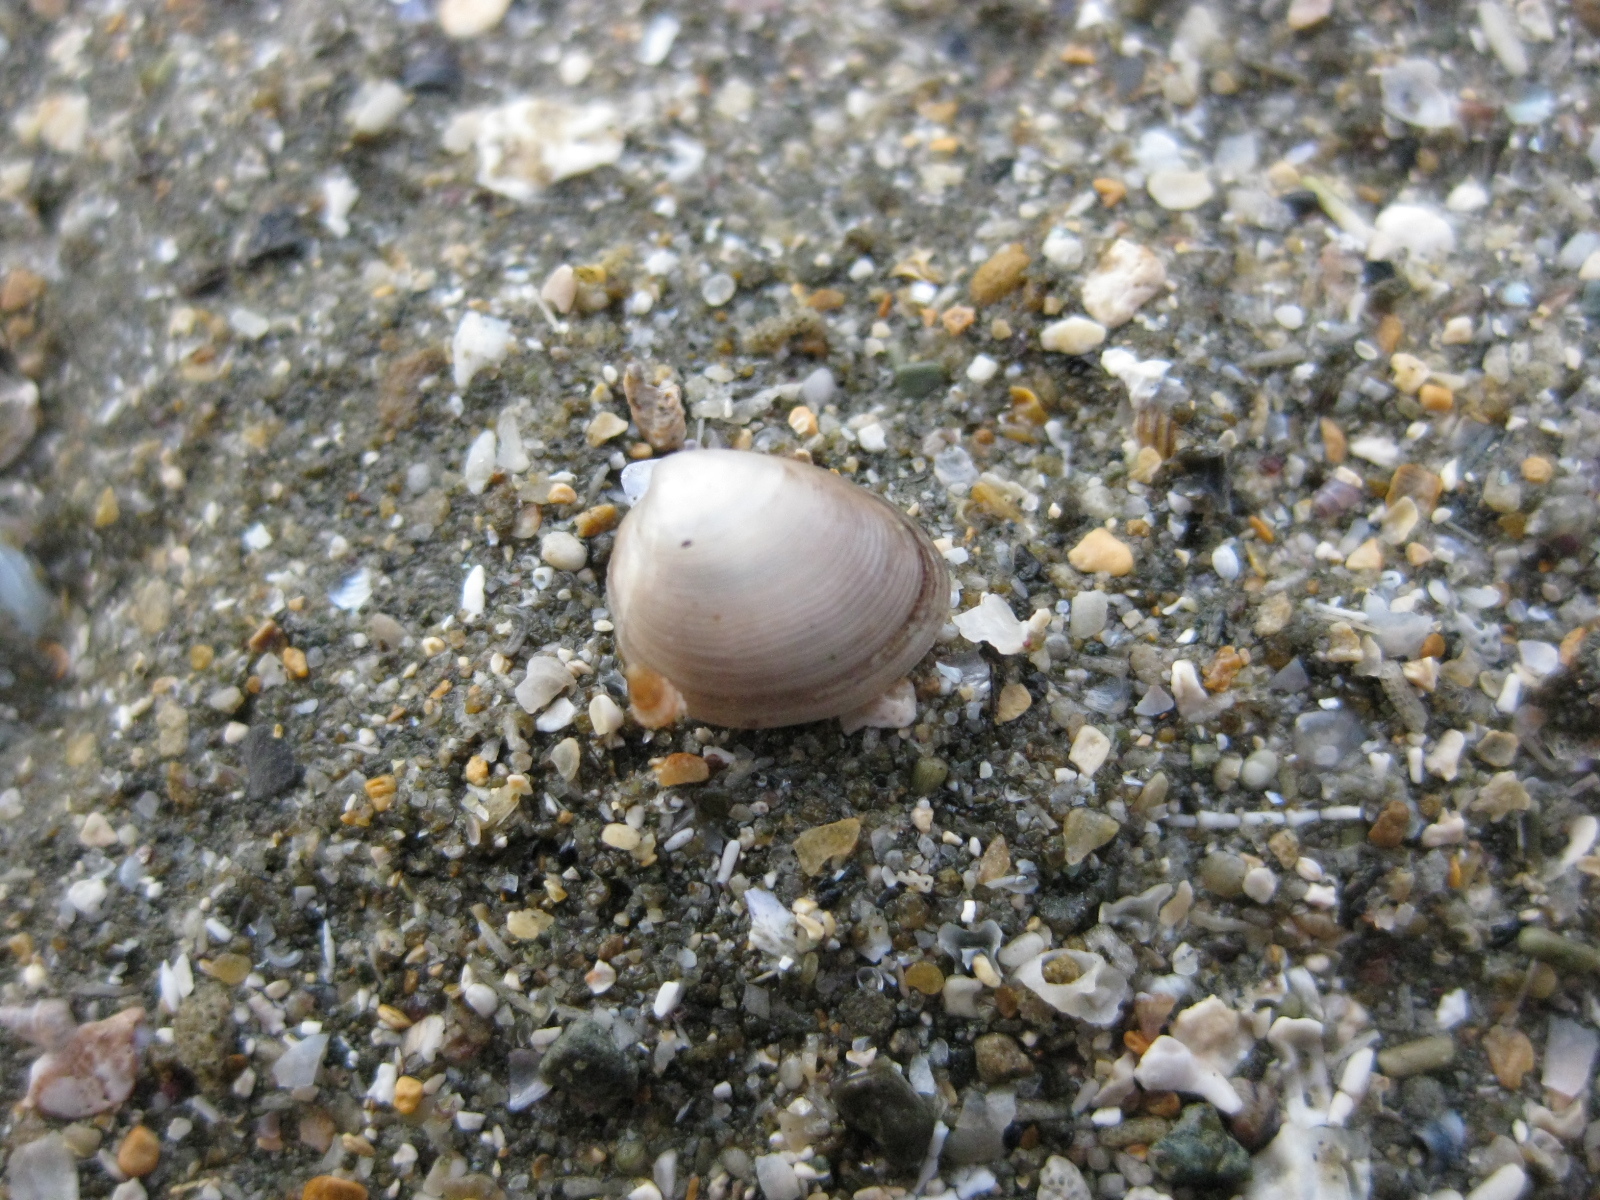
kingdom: Animalia
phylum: Mollusca
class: Bivalvia
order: Nuculida
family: Nuculidae
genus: Linucula
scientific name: Linucula hartvigiana
